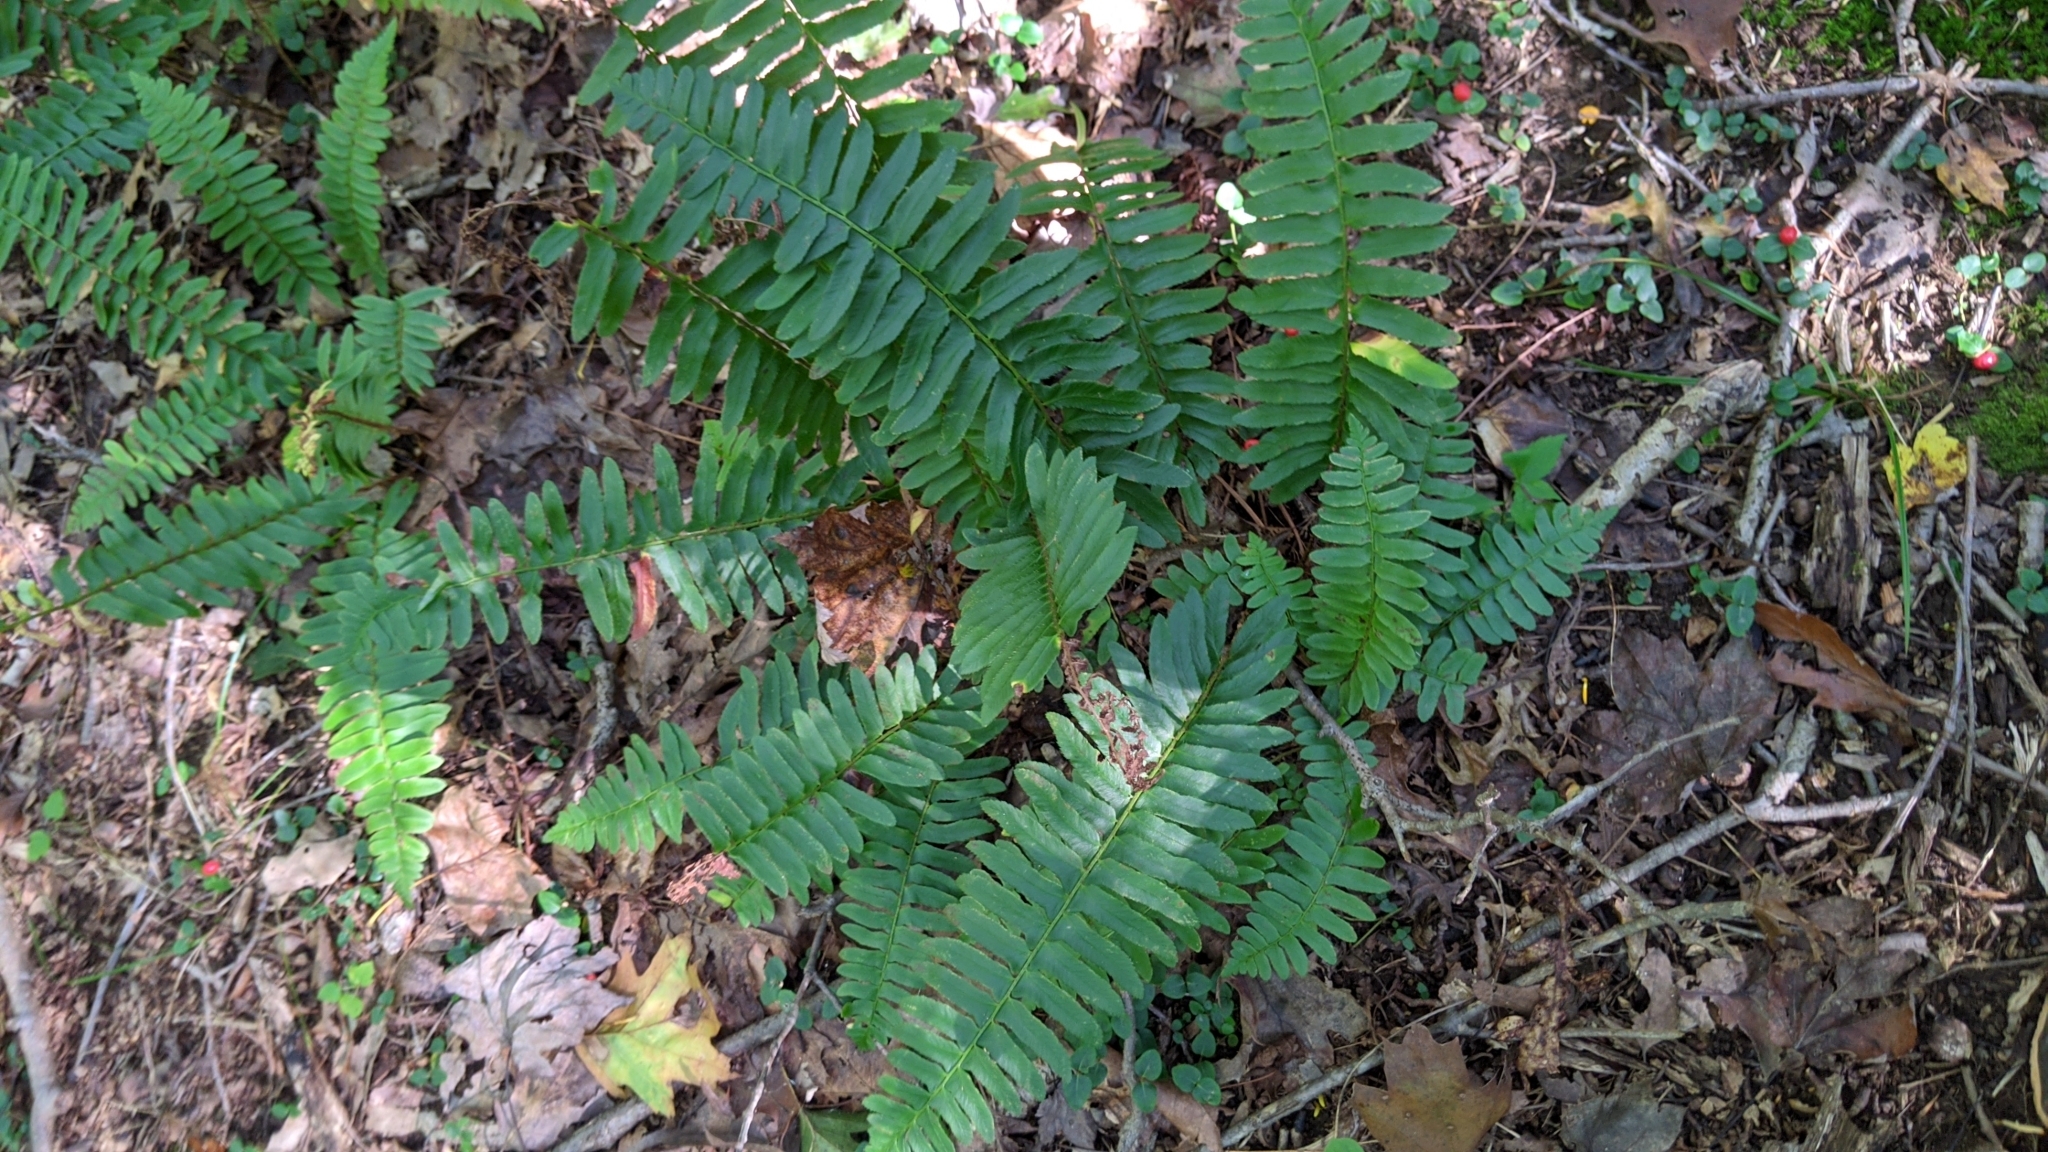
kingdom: Plantae
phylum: Tracheophyta
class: Polypodiopsida
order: Polypodiales
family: Dryopteridaceae
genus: Polystichum
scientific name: Polystichum acrostichoides
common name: Christmas fern
